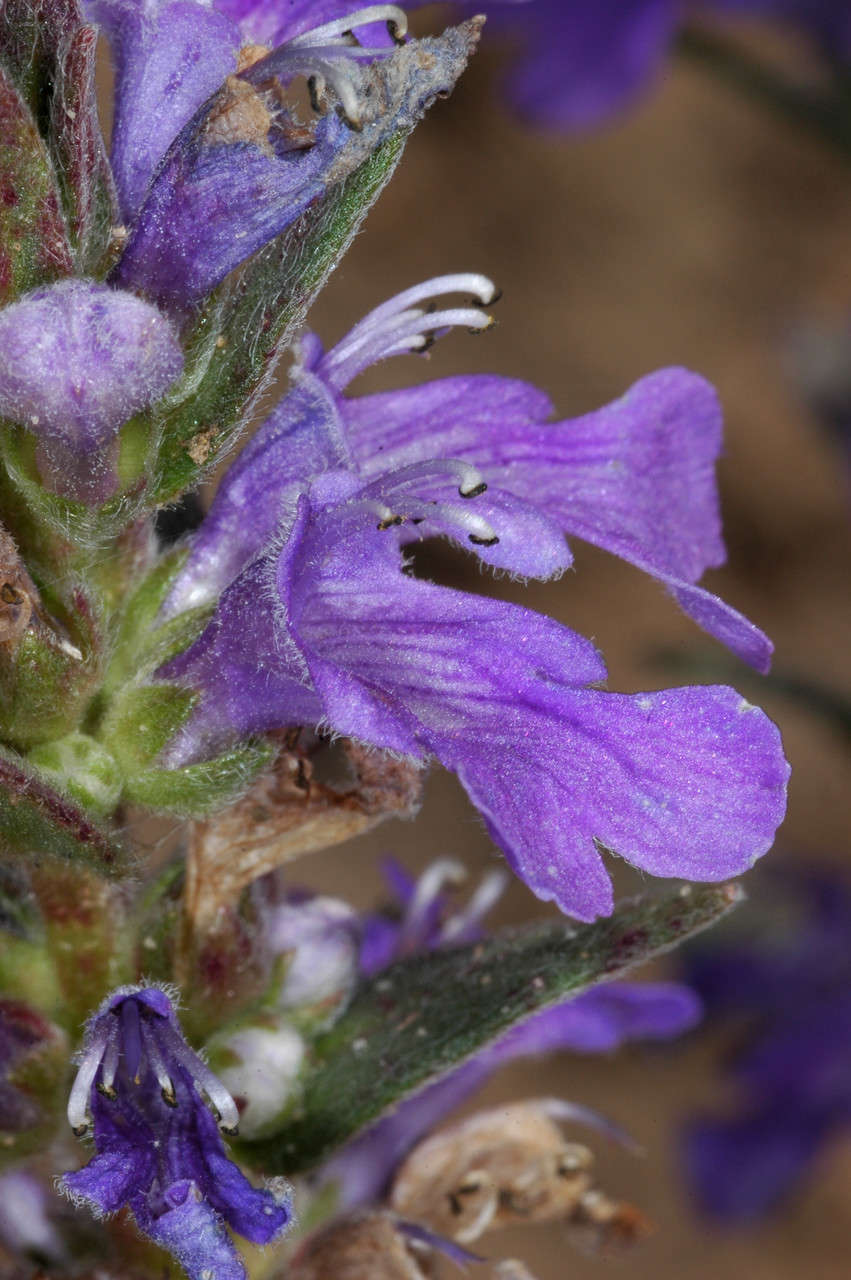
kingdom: Plantae
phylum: Tracheophyta
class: Magnoliopsida
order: Lamiales
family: Lamiaceae
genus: Ajuga
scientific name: Ajuga australis
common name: Australian bugle
